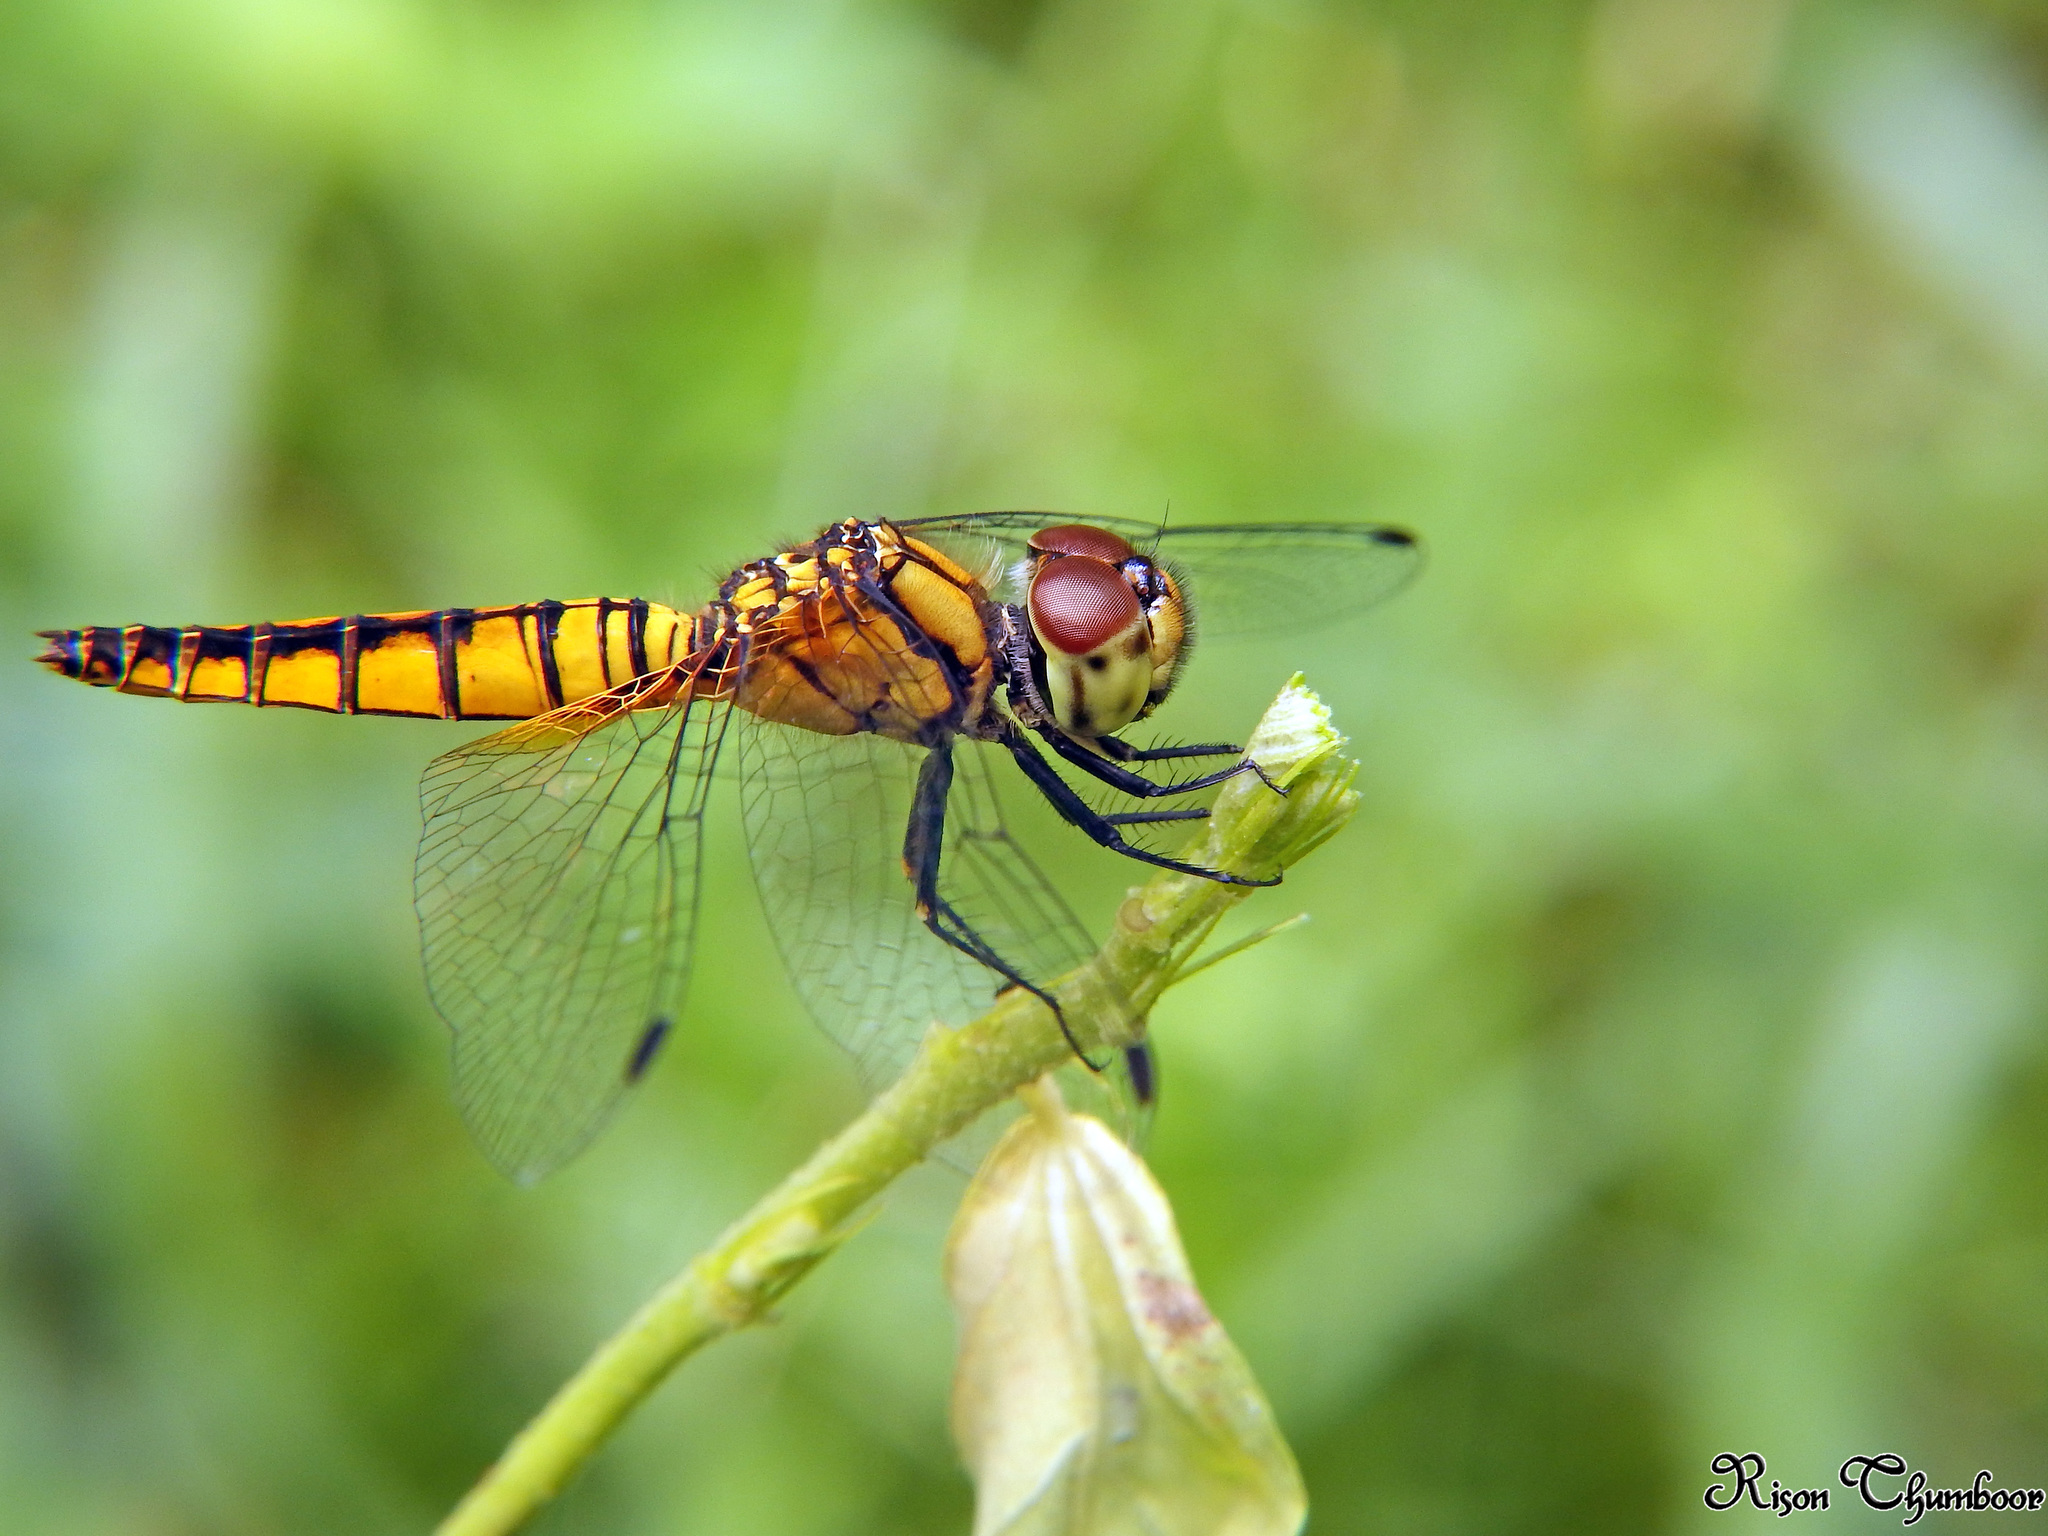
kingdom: Animalia
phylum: Arthropoda
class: Insecta
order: Odonata
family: Libellulidae
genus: Aethriamanta
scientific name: Aethriamanta brevipennis
